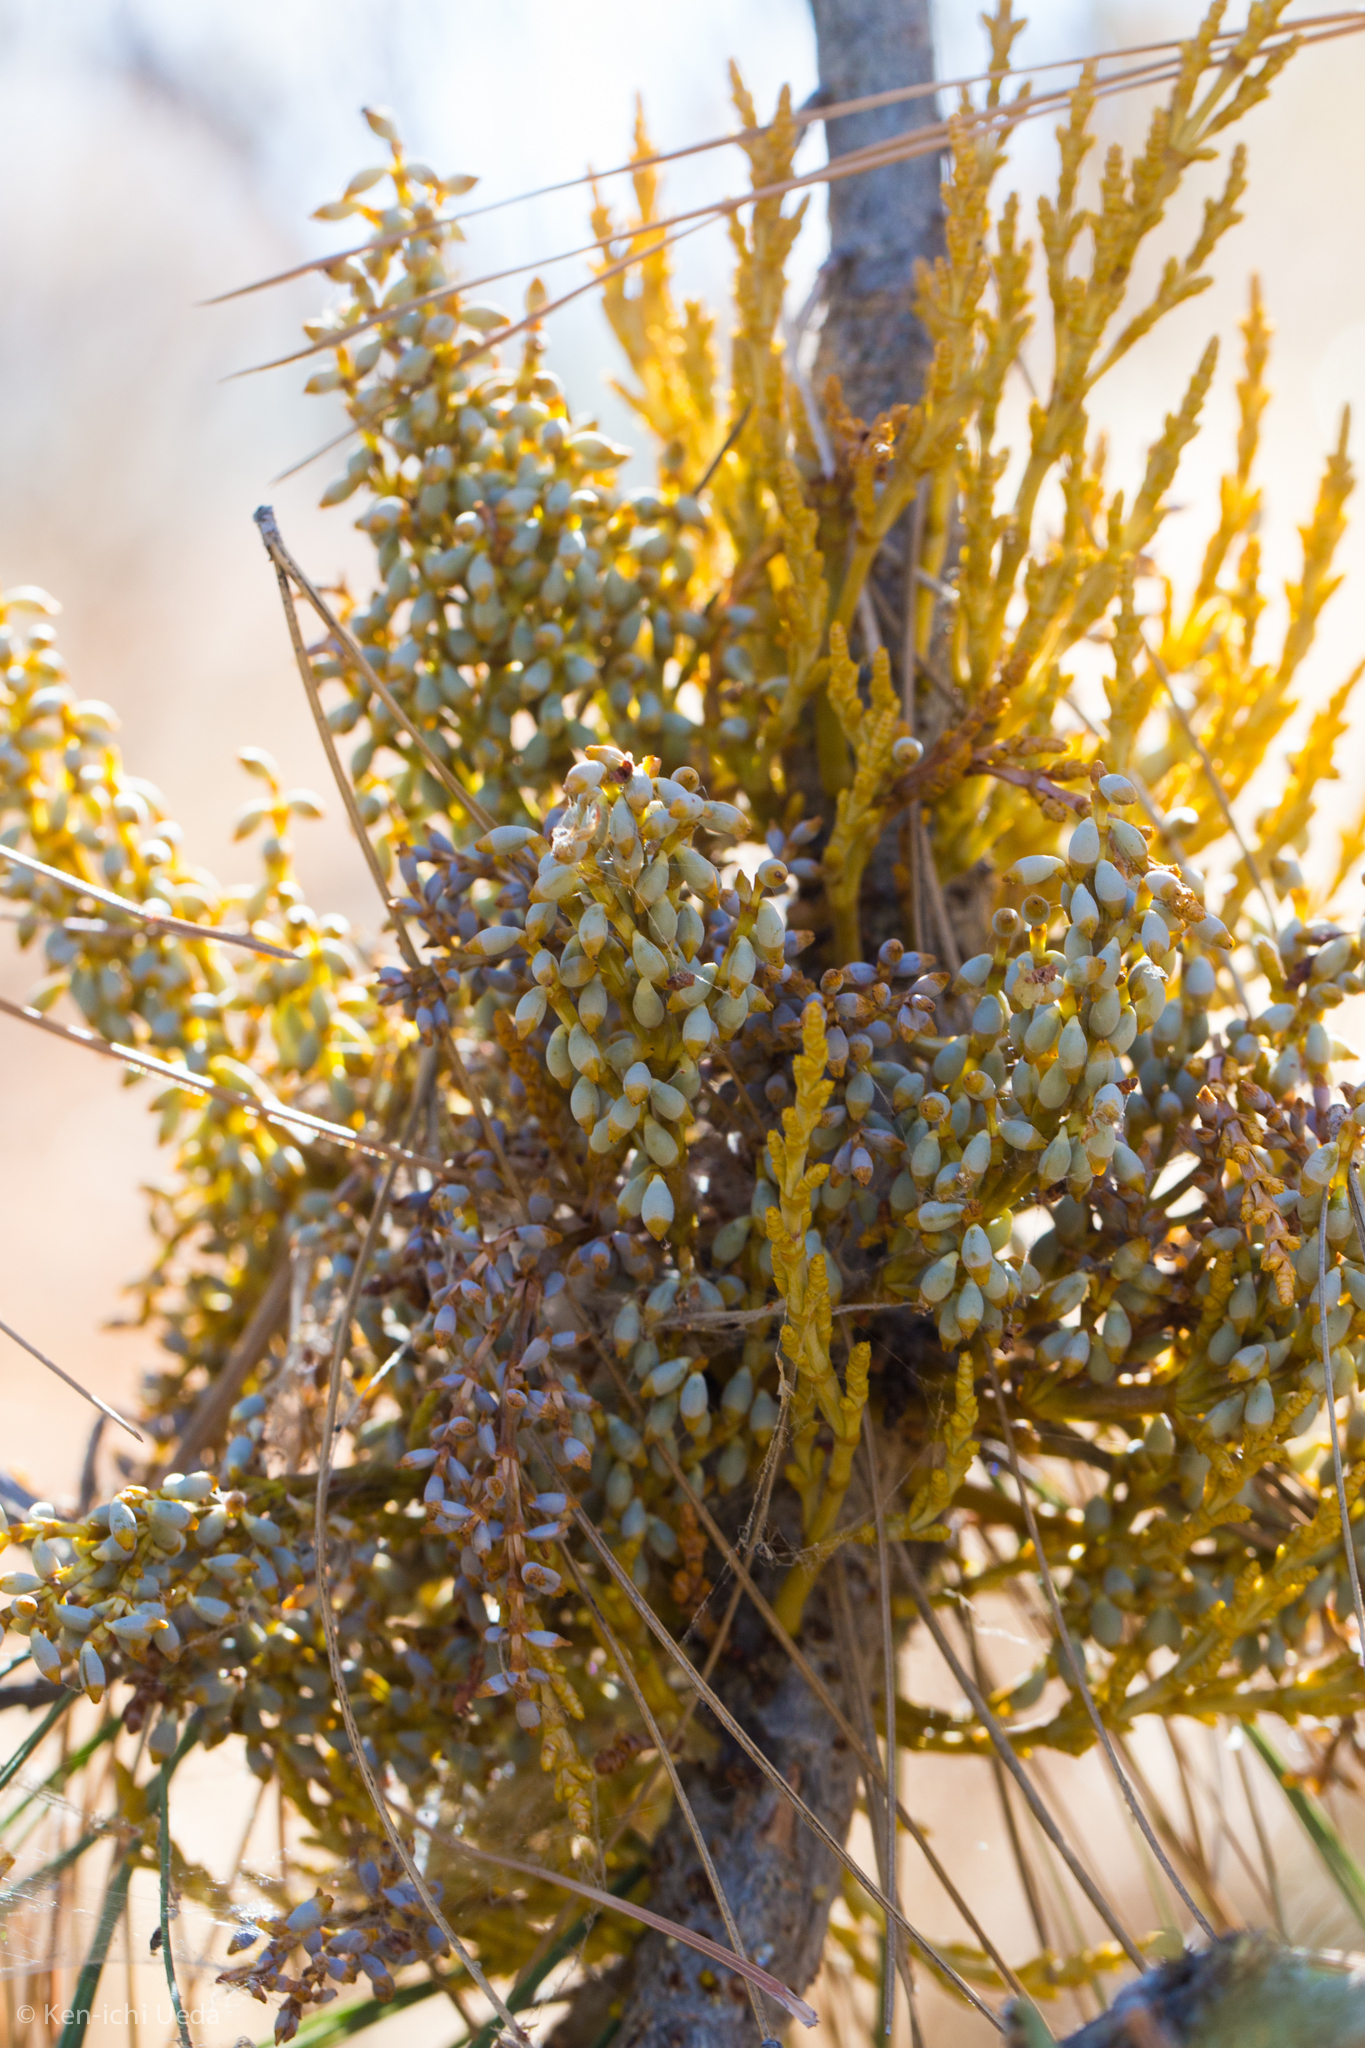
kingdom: Plantae
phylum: Tracheophyta
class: Magnoliopsida
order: Santalales
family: Viscaceae
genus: Arceuthobium
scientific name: Arceuthobium campylopodum
